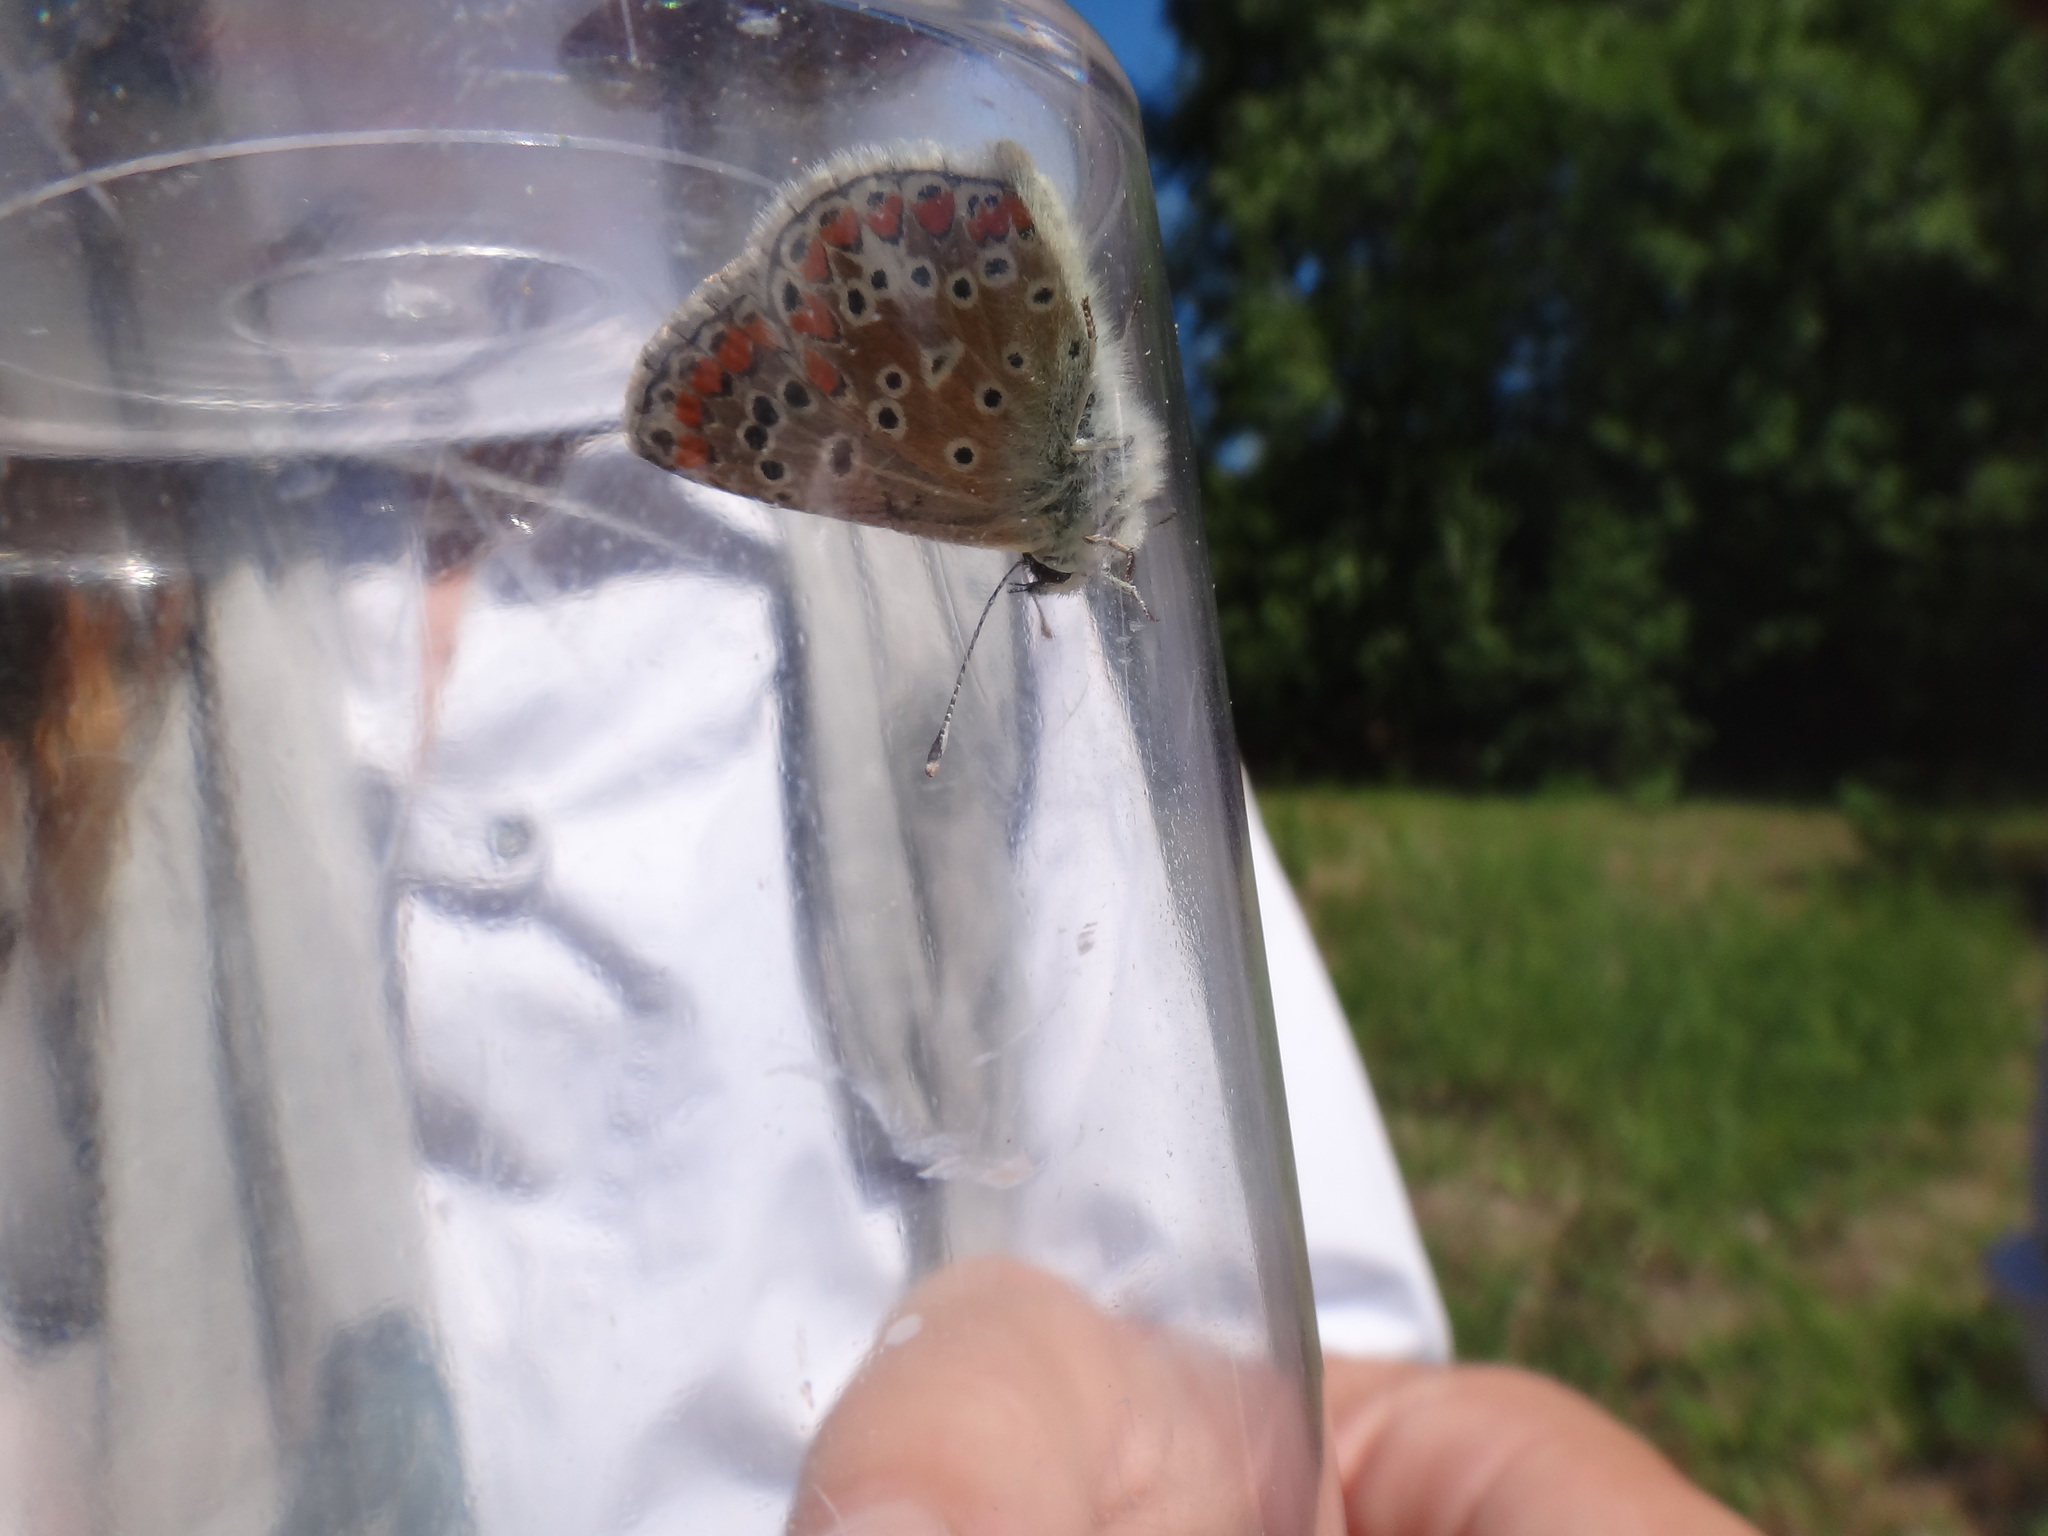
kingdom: Animalia
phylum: Arthropoda
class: Insecta
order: Lepidoptera
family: Lycaenidae
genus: Aricia
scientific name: Aricia agestis
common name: Brown argus
